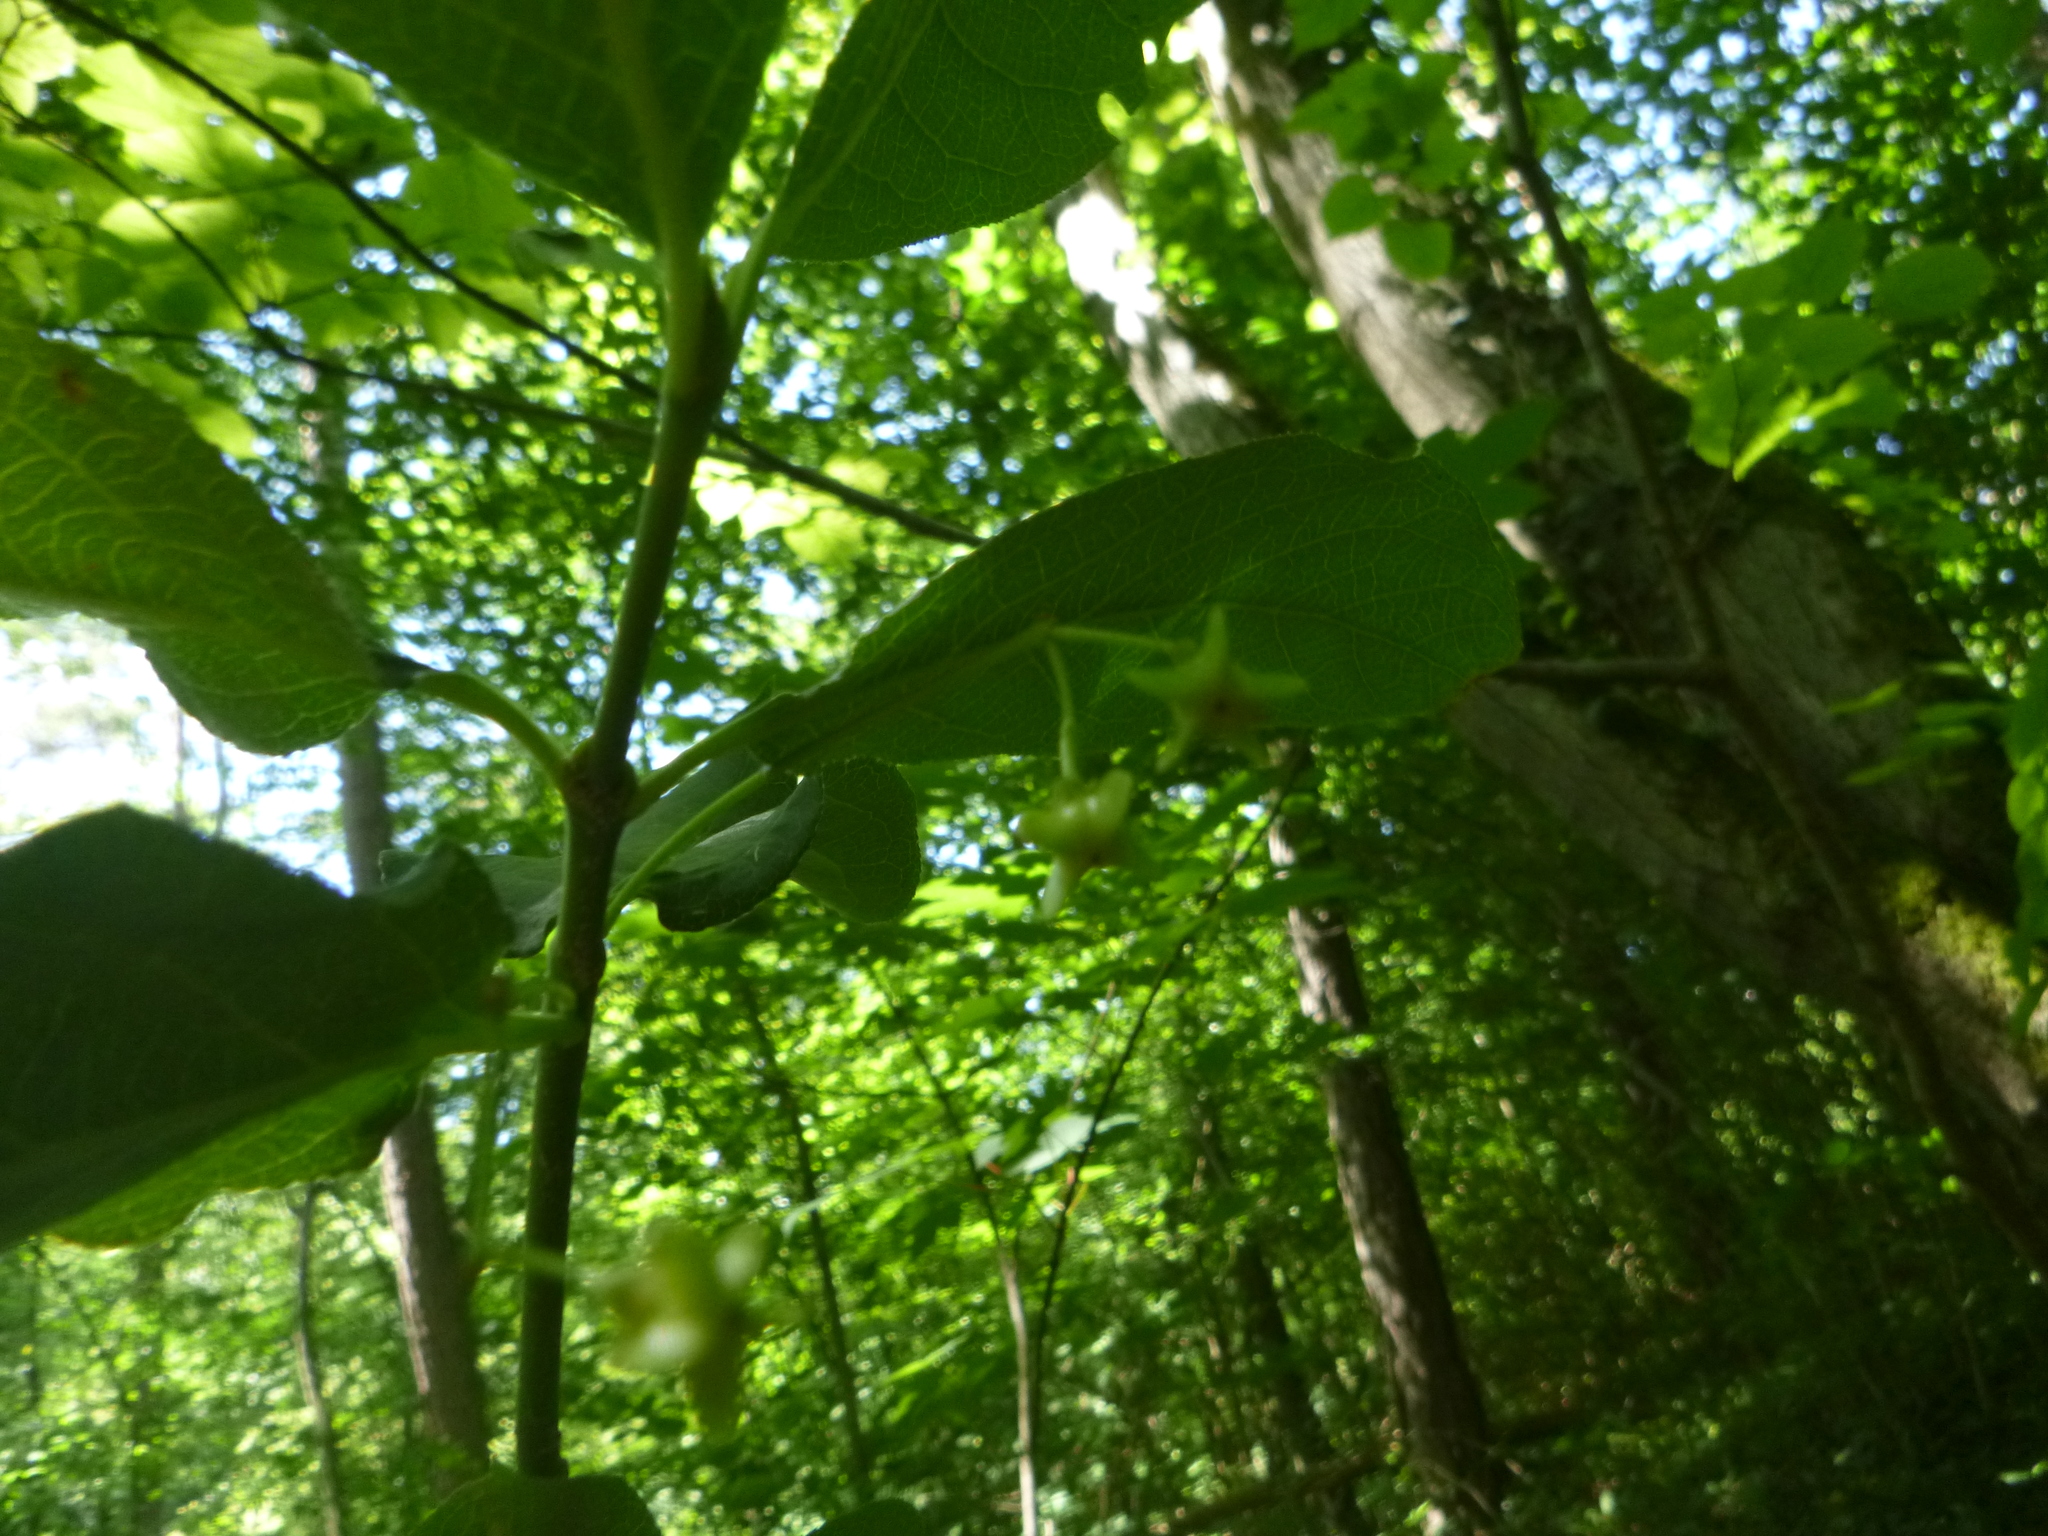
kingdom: Plantae
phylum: Tracheophyta
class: Magnoliopsida
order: Celastrales
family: Celastraceae
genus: Euonymus
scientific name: Euonymus latifolius
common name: Large-leaved spindle
